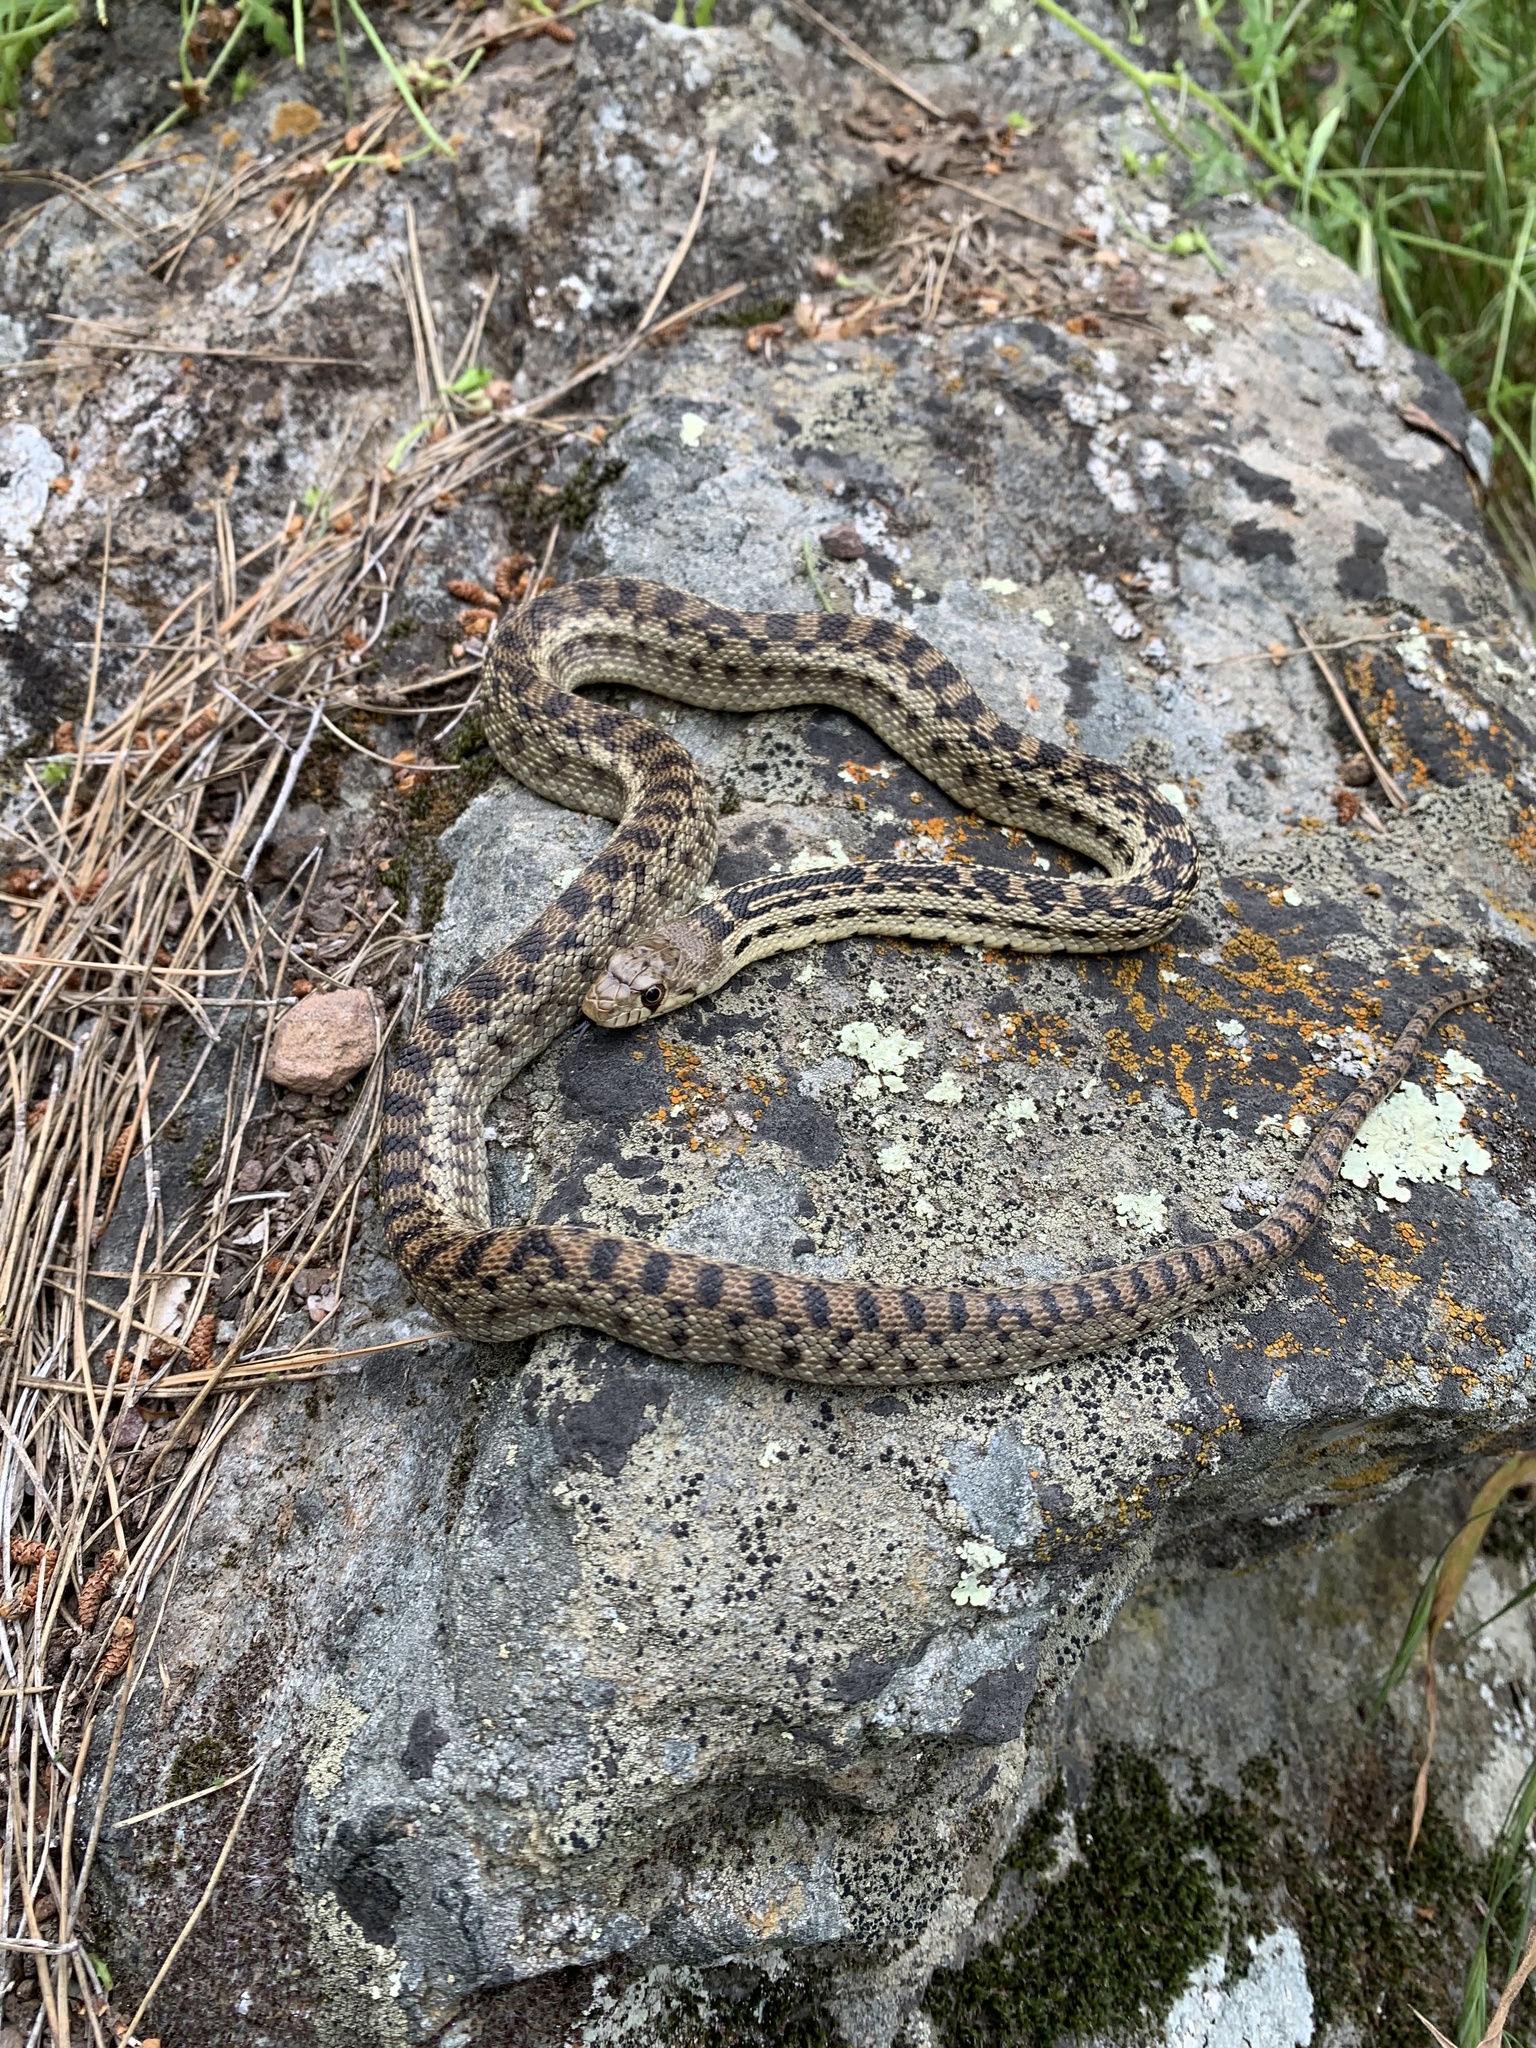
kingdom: Animalia
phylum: Chordata
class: Squamata
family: Colubridae
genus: Pituophis
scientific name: Pituophis catenifer
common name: Gopher snake
